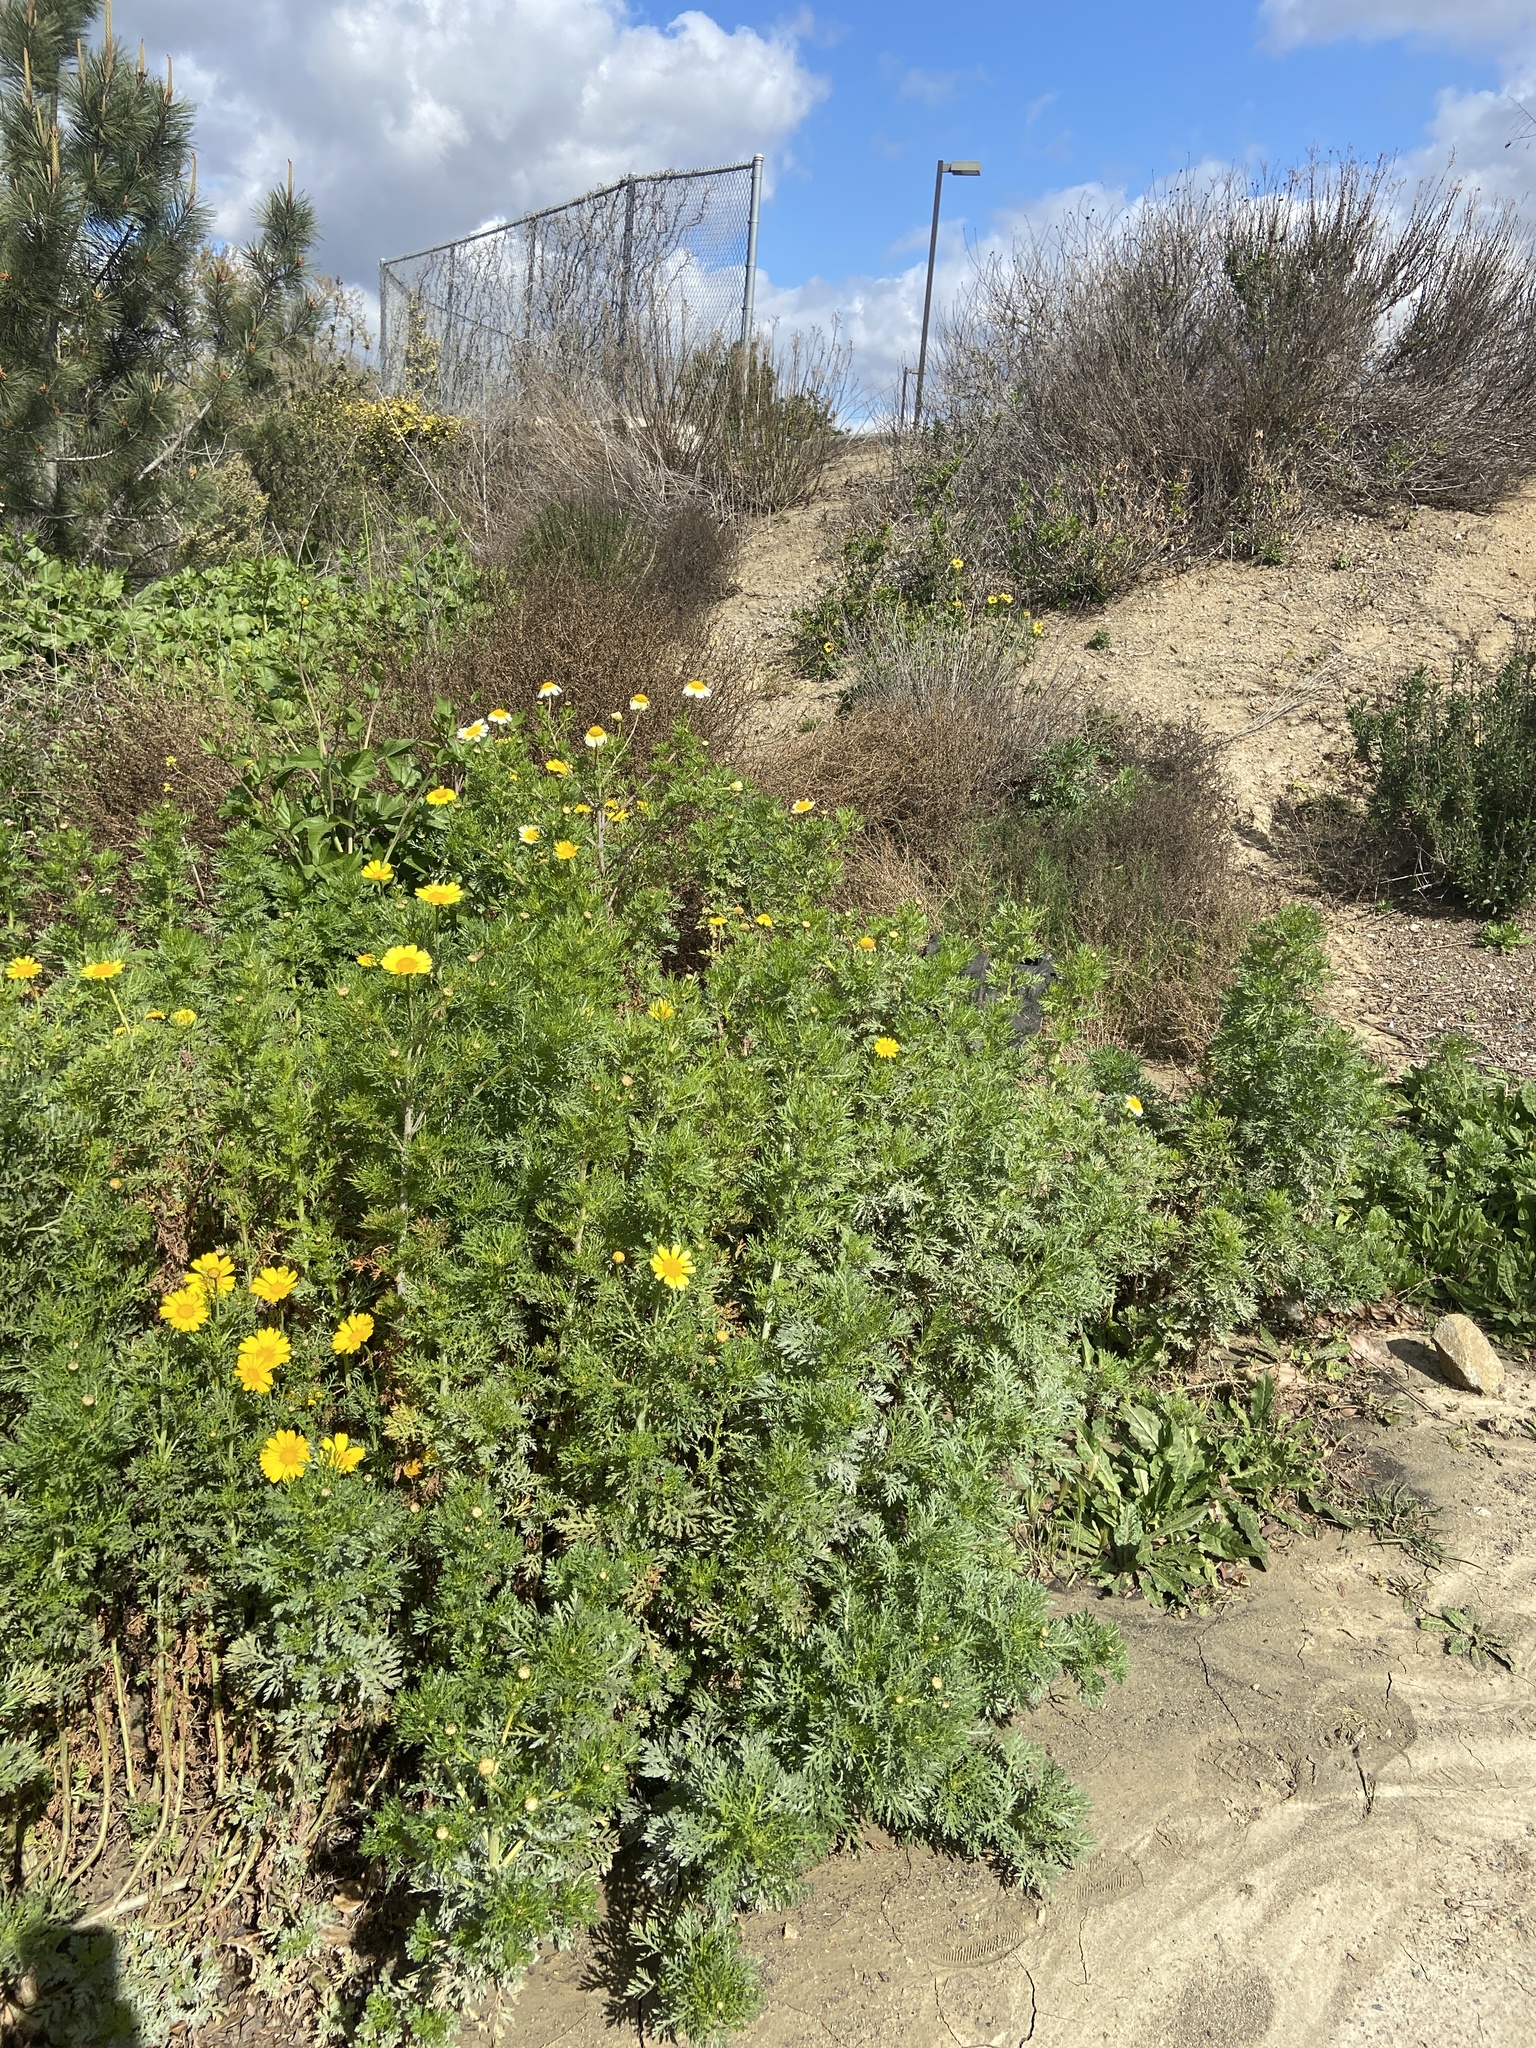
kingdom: Plantae
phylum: Tracheophyta
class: Magnoliopsida
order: Asterales
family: Asteraceae
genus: Glebionis
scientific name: Glebionis coronaria
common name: Crowndaisy
